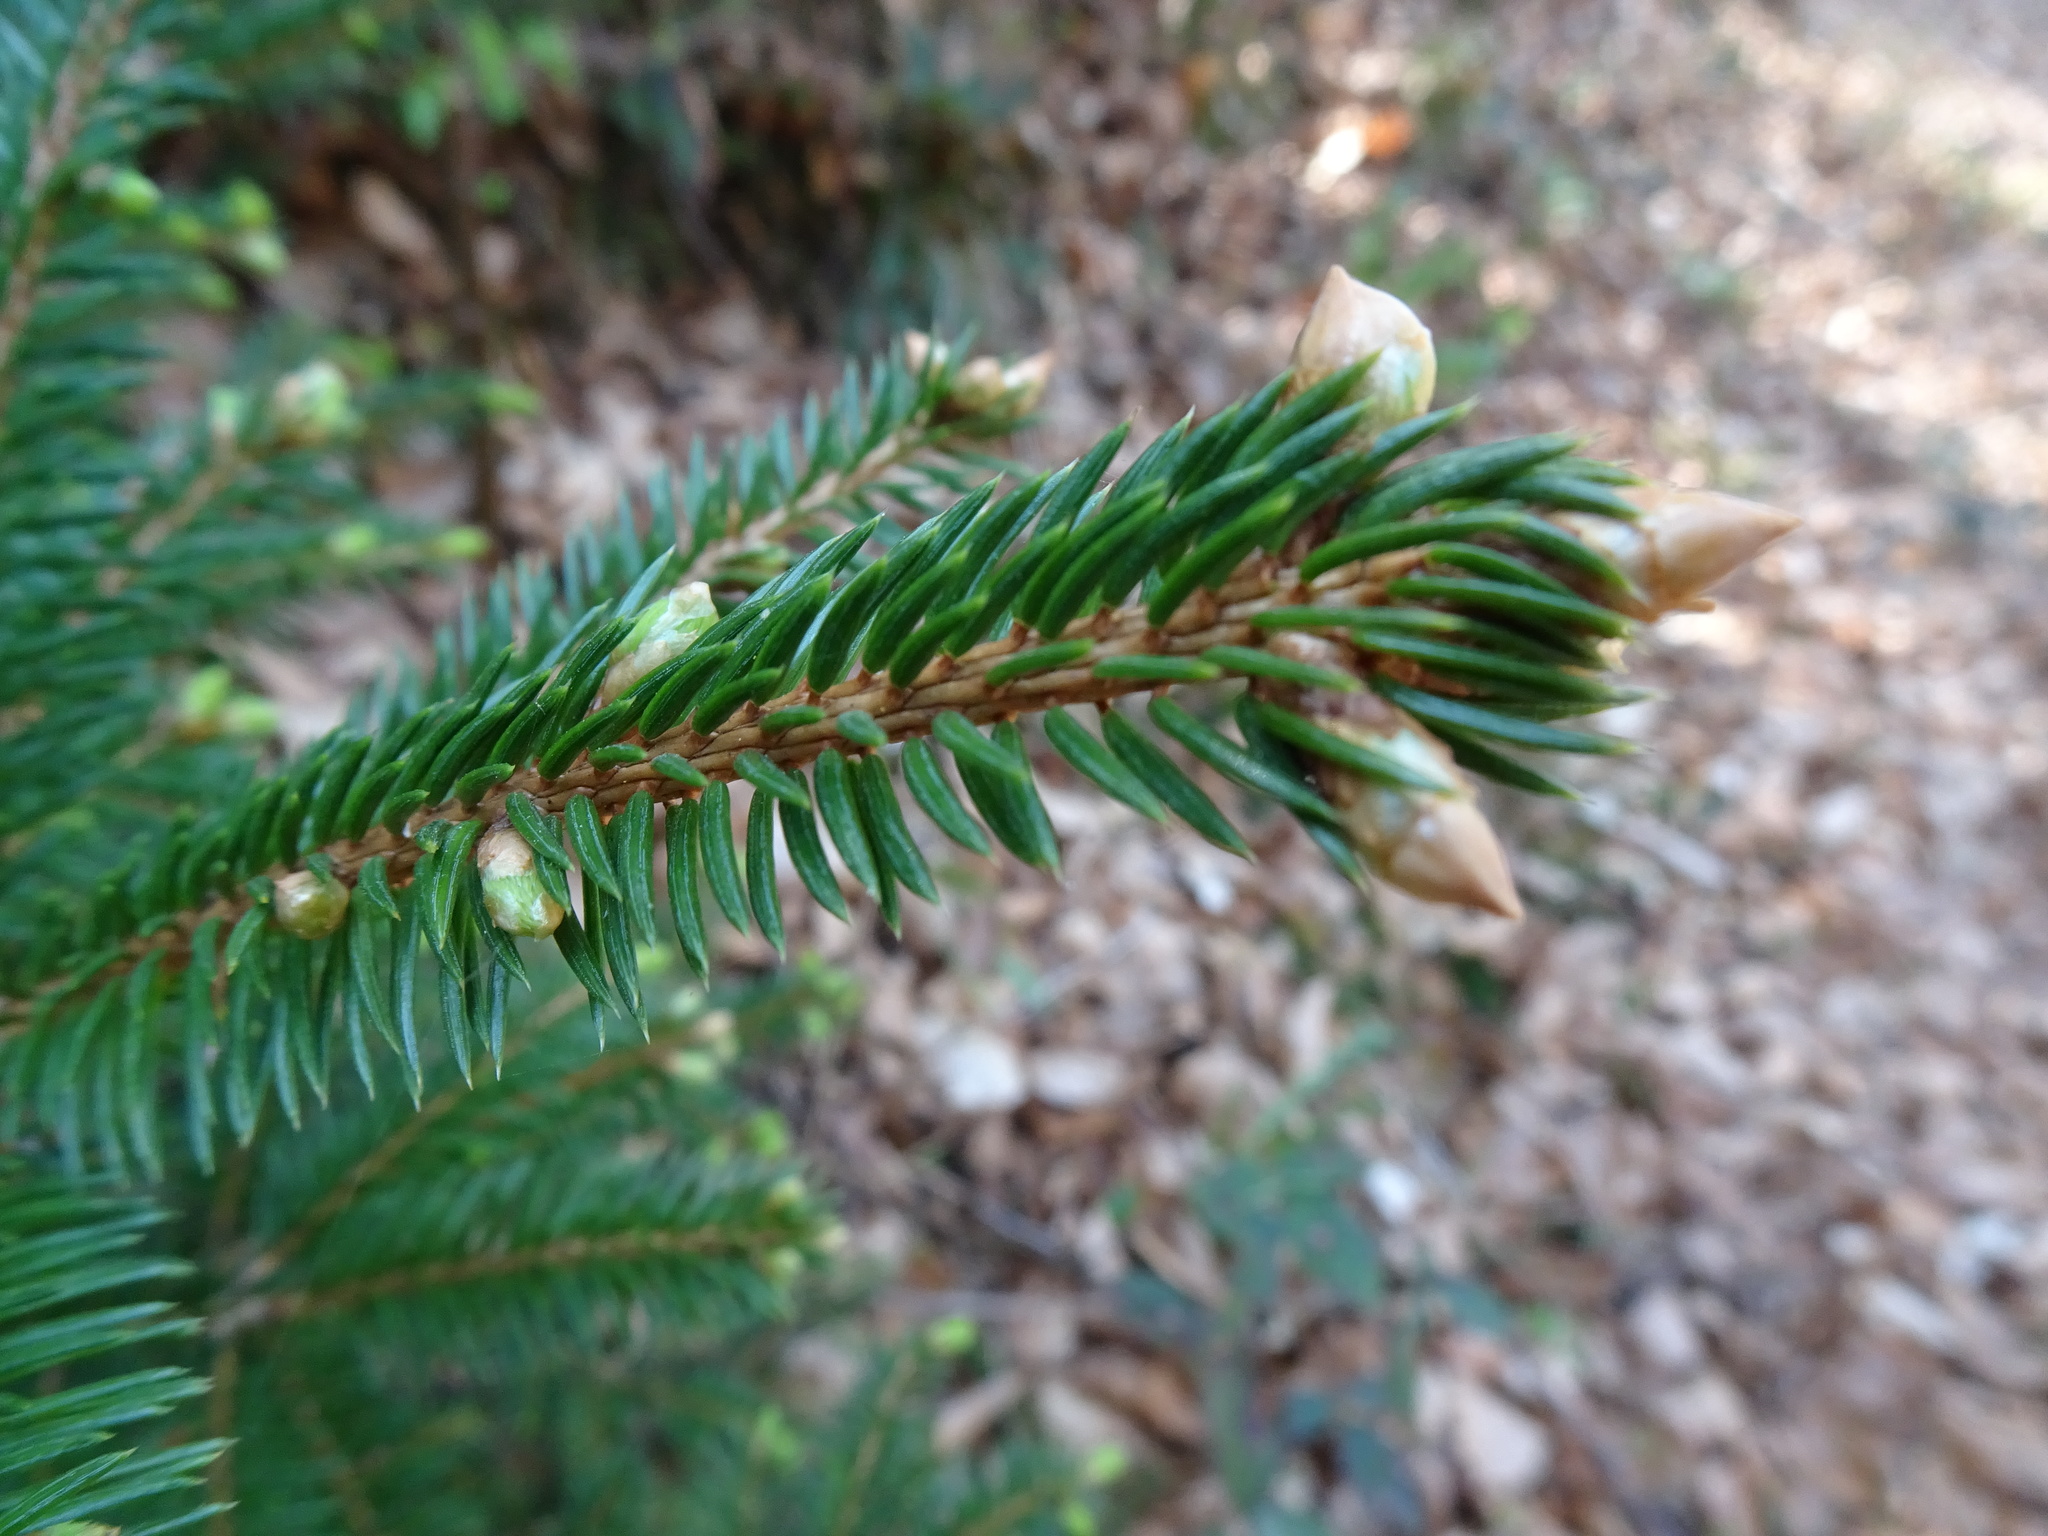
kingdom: Plantae
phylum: Tracheophyta
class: Pinopsida
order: Pinales
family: Pinaceae
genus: Picea
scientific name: Picea abies
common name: Norway spruce
